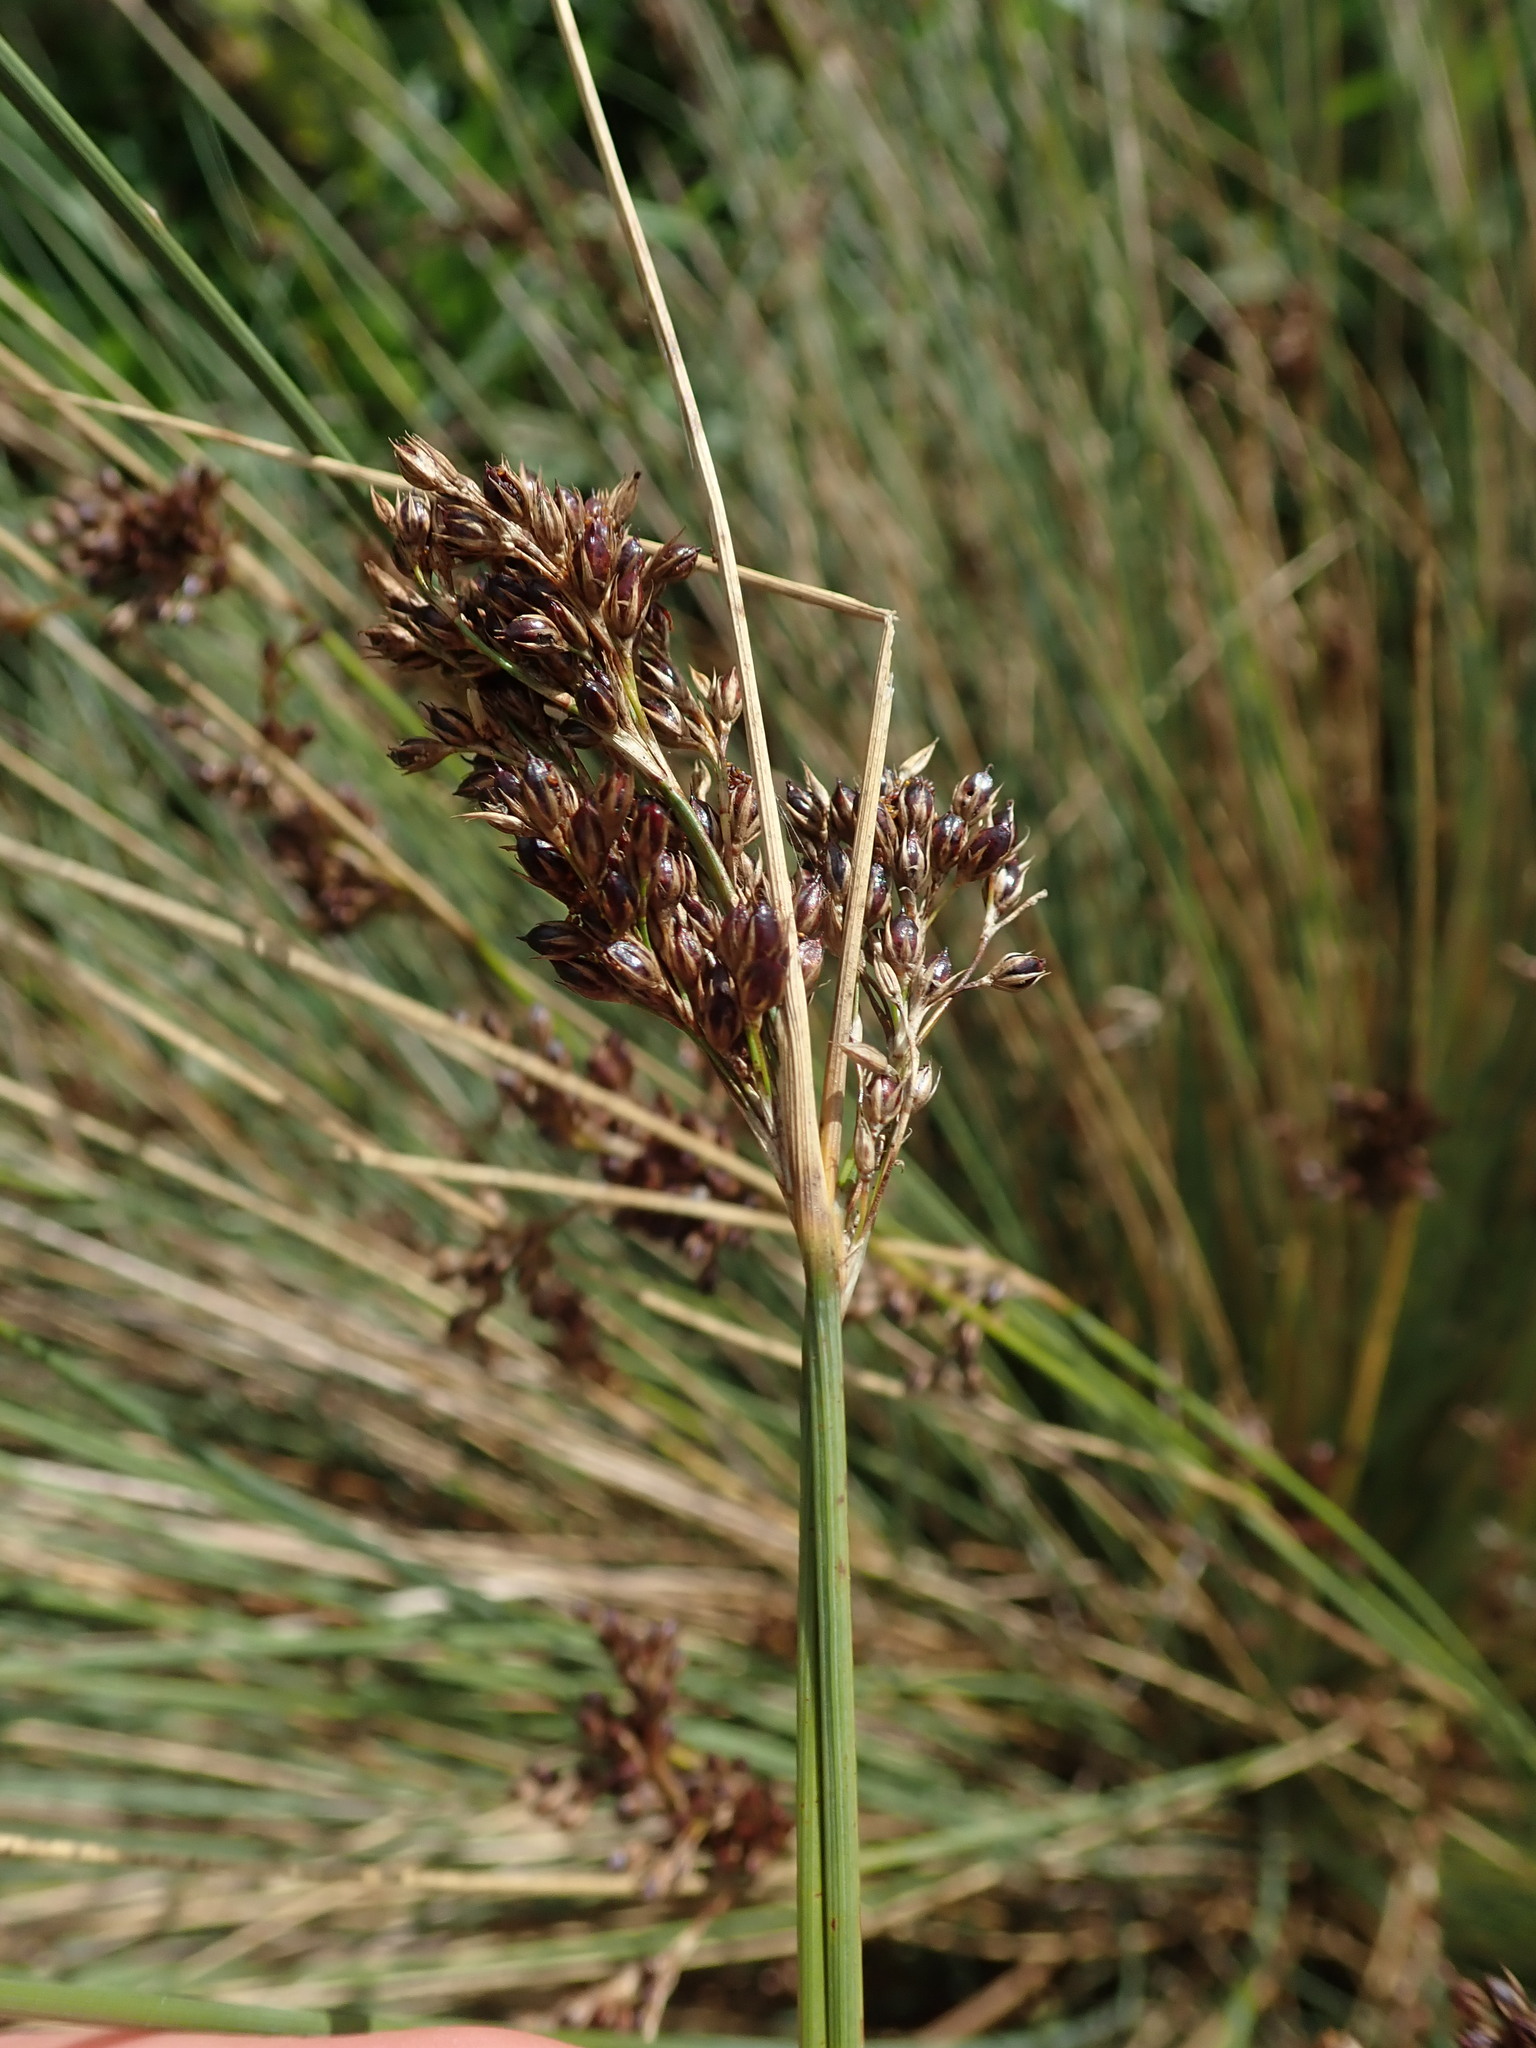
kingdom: Plantae
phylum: Tracheophyta
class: Liliopsida
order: Poales
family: Juncaceae
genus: Juncus
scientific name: Juncus inflexus
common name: Hard rush
